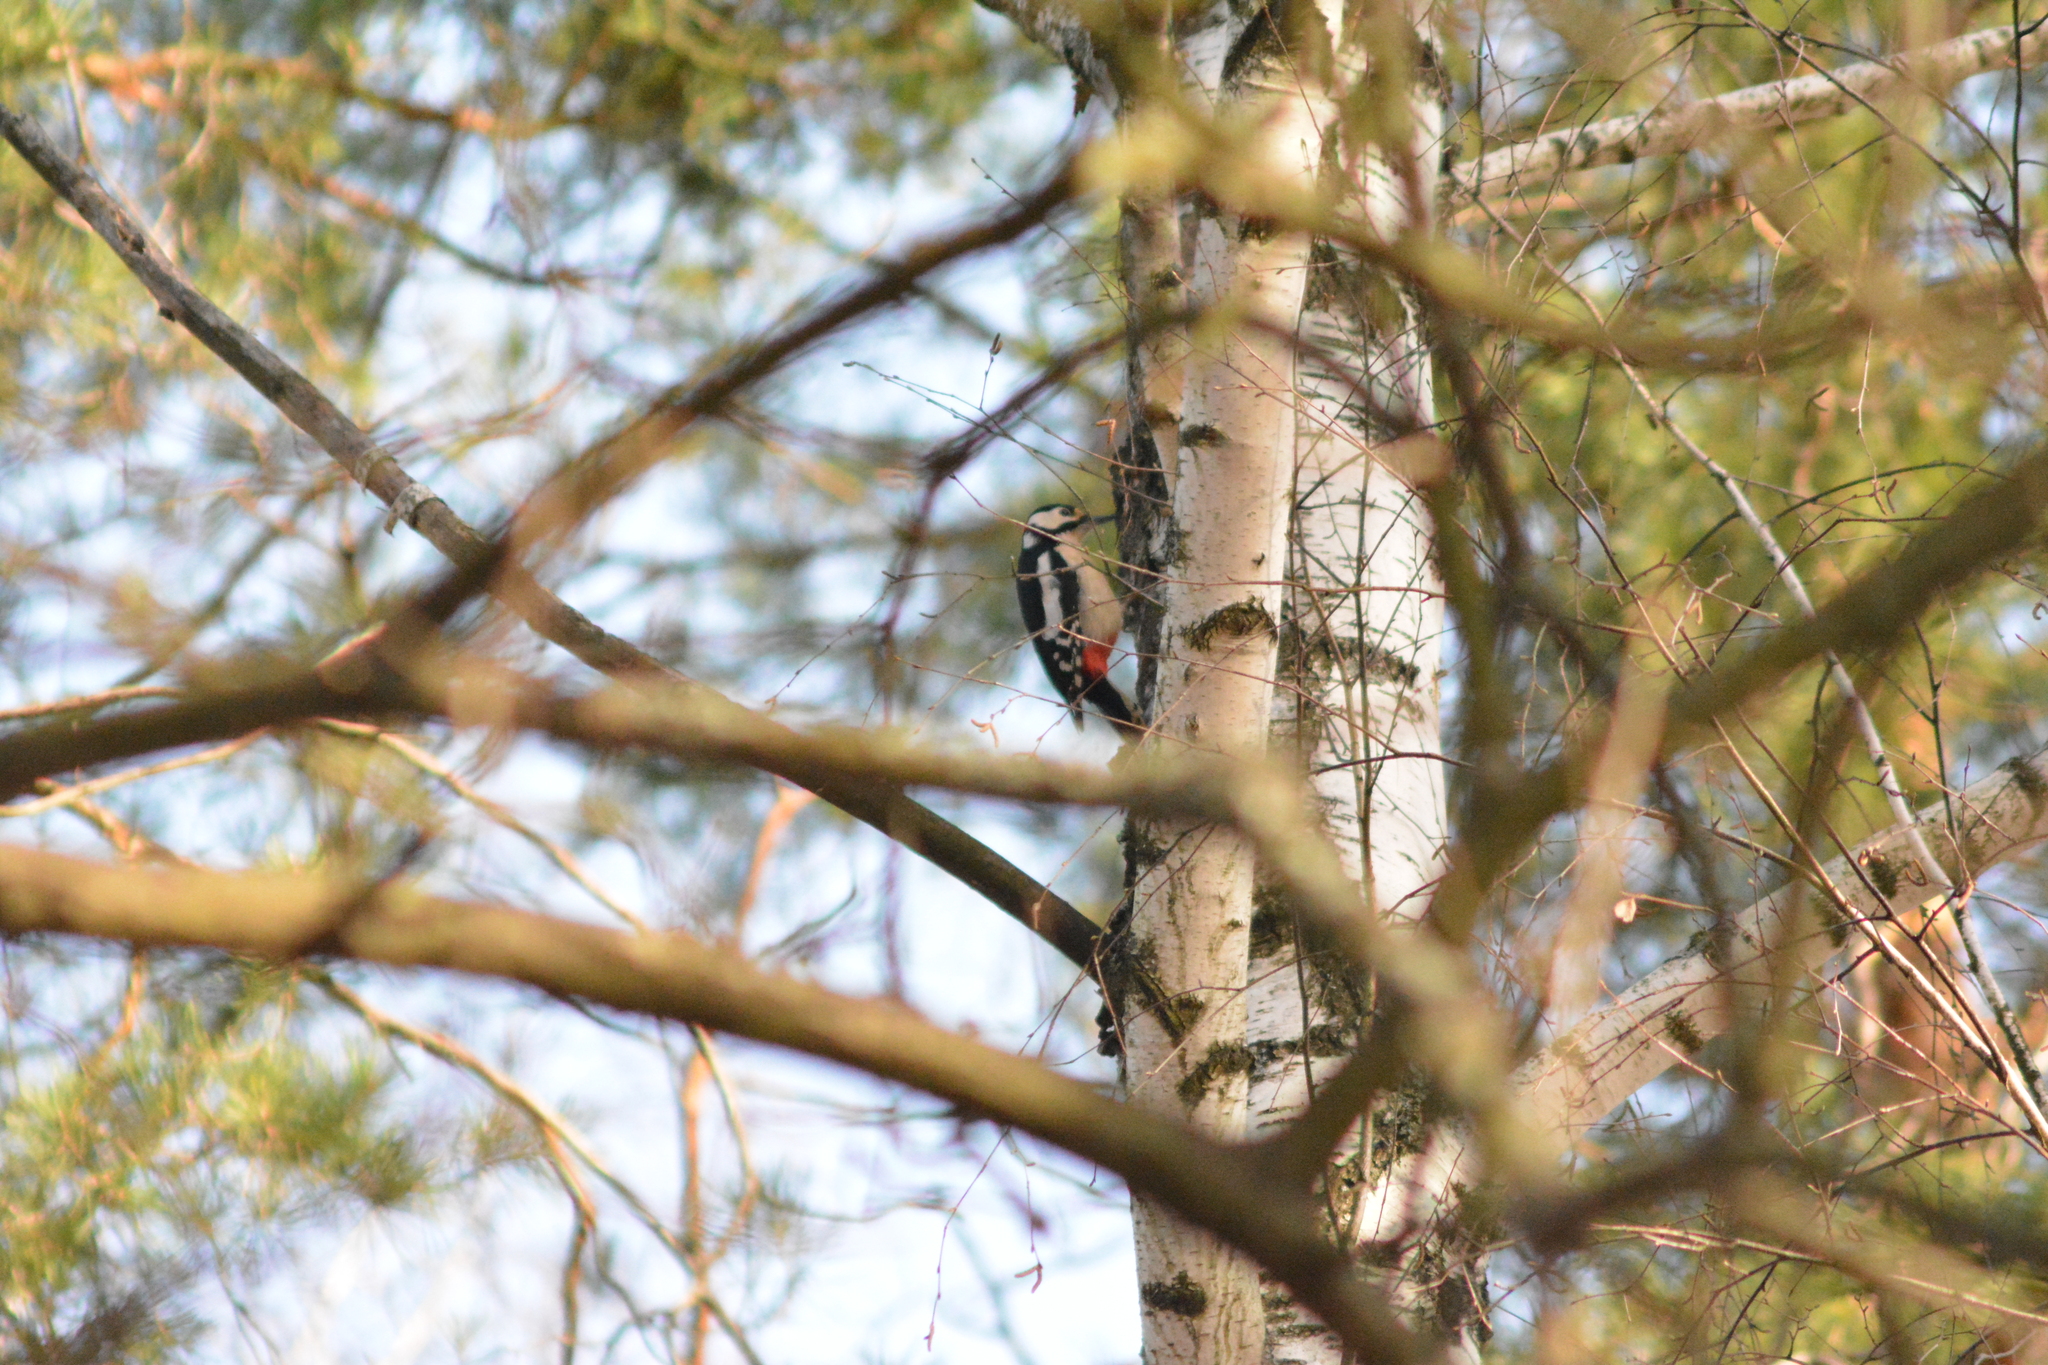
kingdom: Animalia
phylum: Chordata
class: Aves
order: Piciformes
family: Picidae
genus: Dendrocopos
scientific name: Dendrocopos major
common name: Great spotted woodpecker
